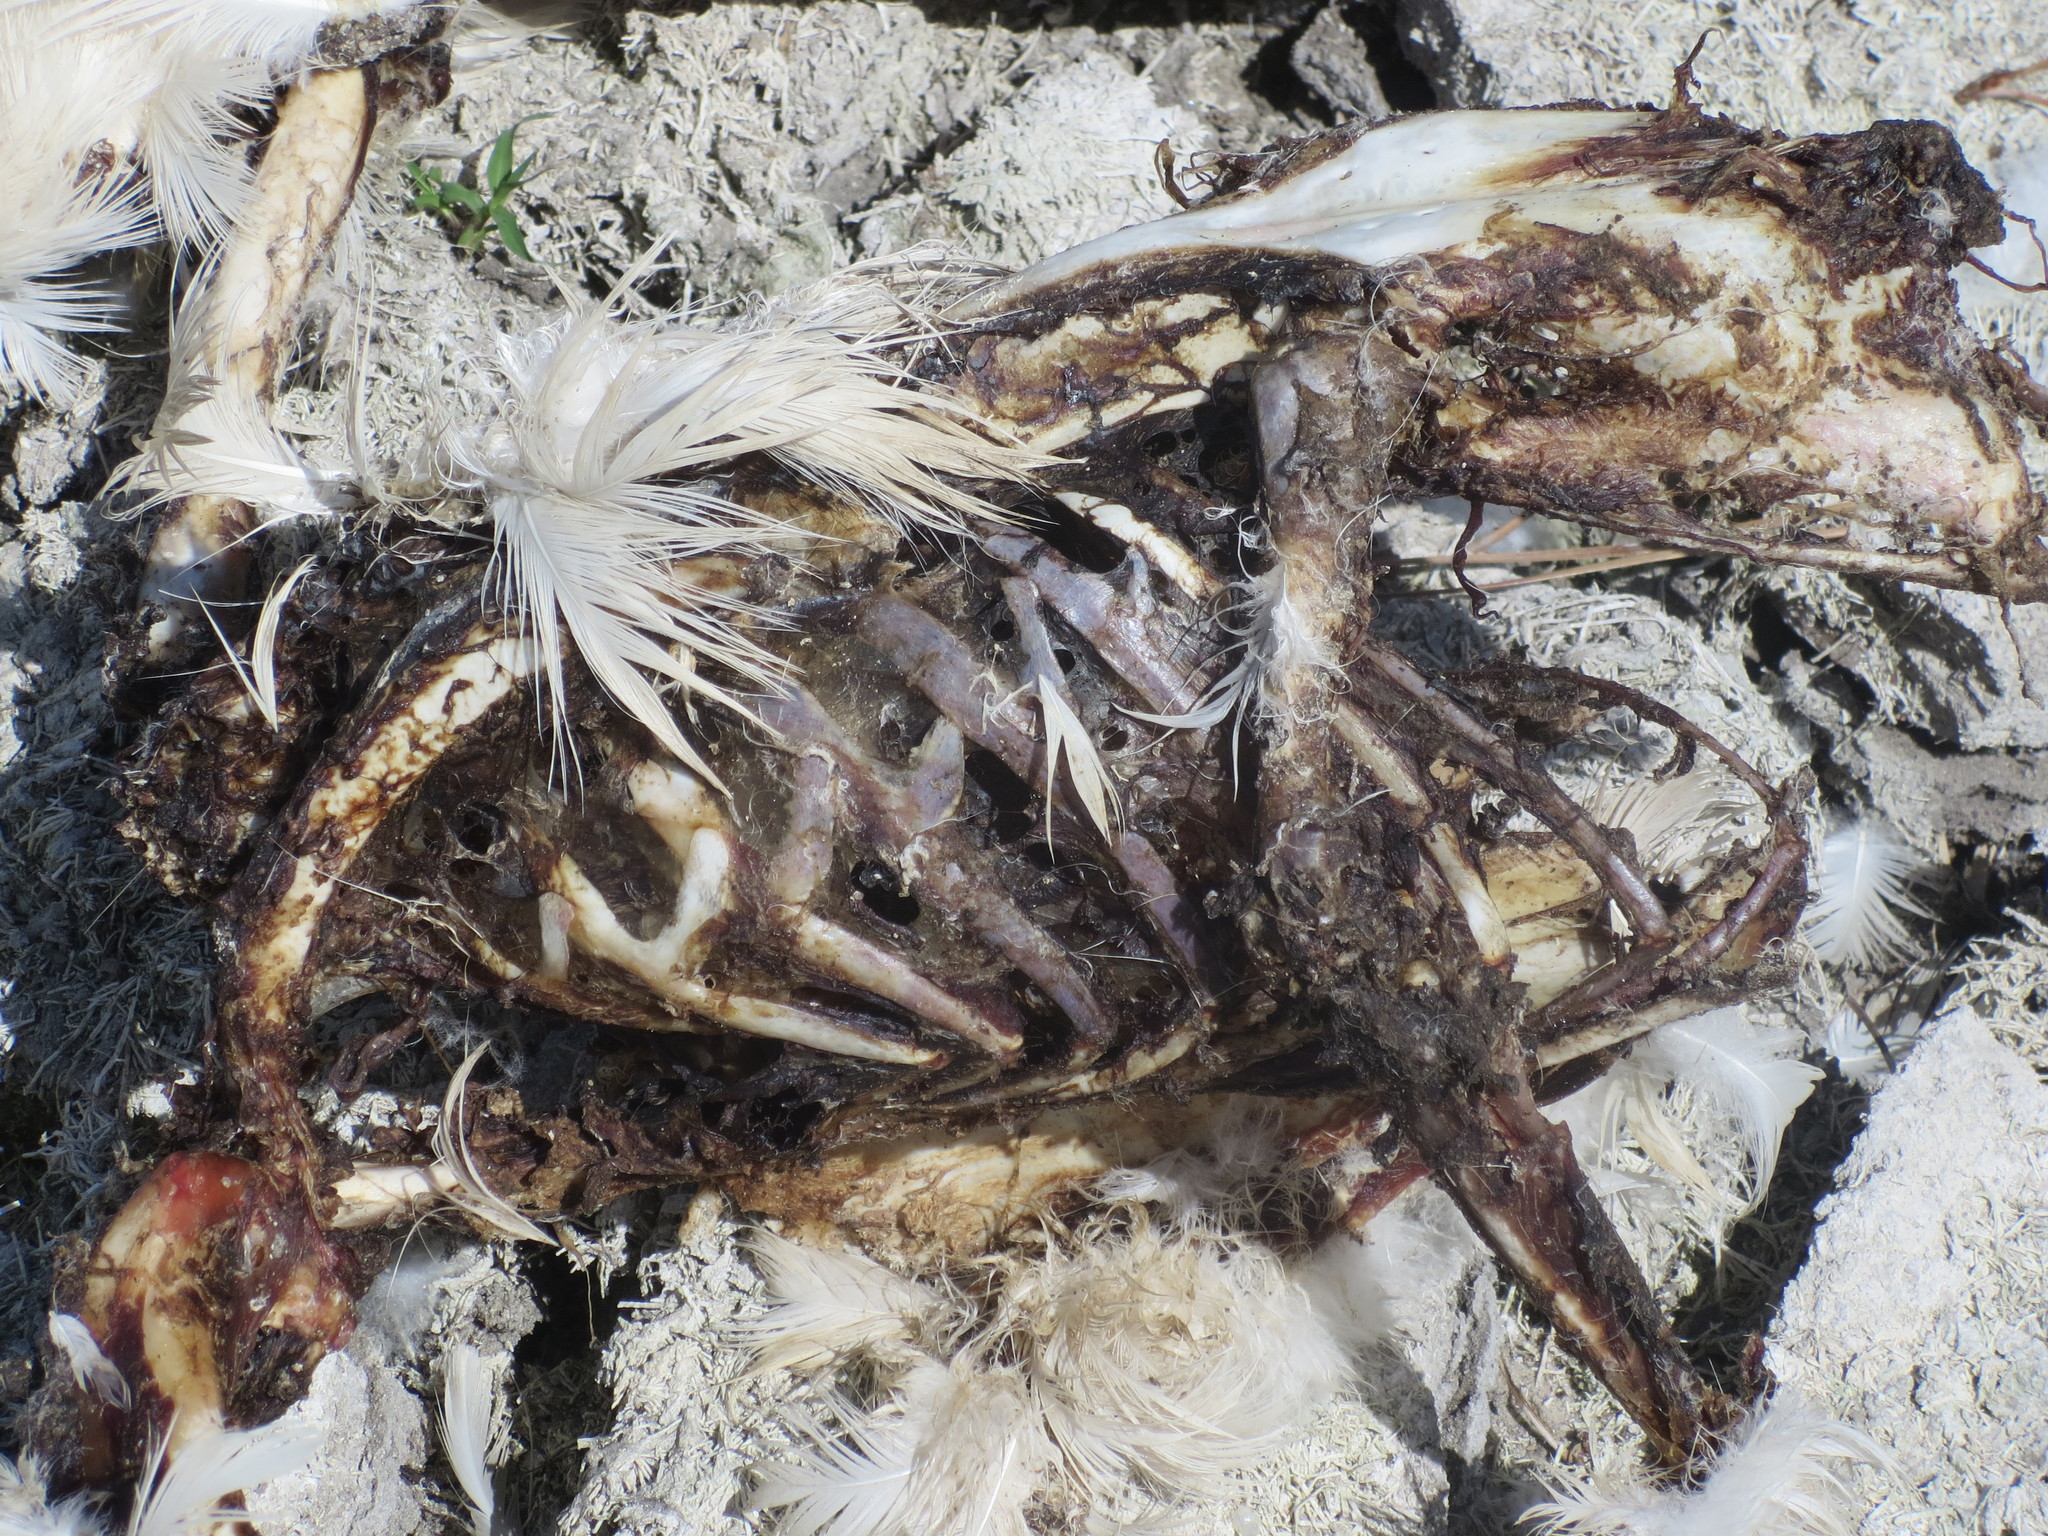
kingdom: Animalia
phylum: Chordata
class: Aves
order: Anseriformes
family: Anatidae
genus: Cairina
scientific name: Cairina moschata
